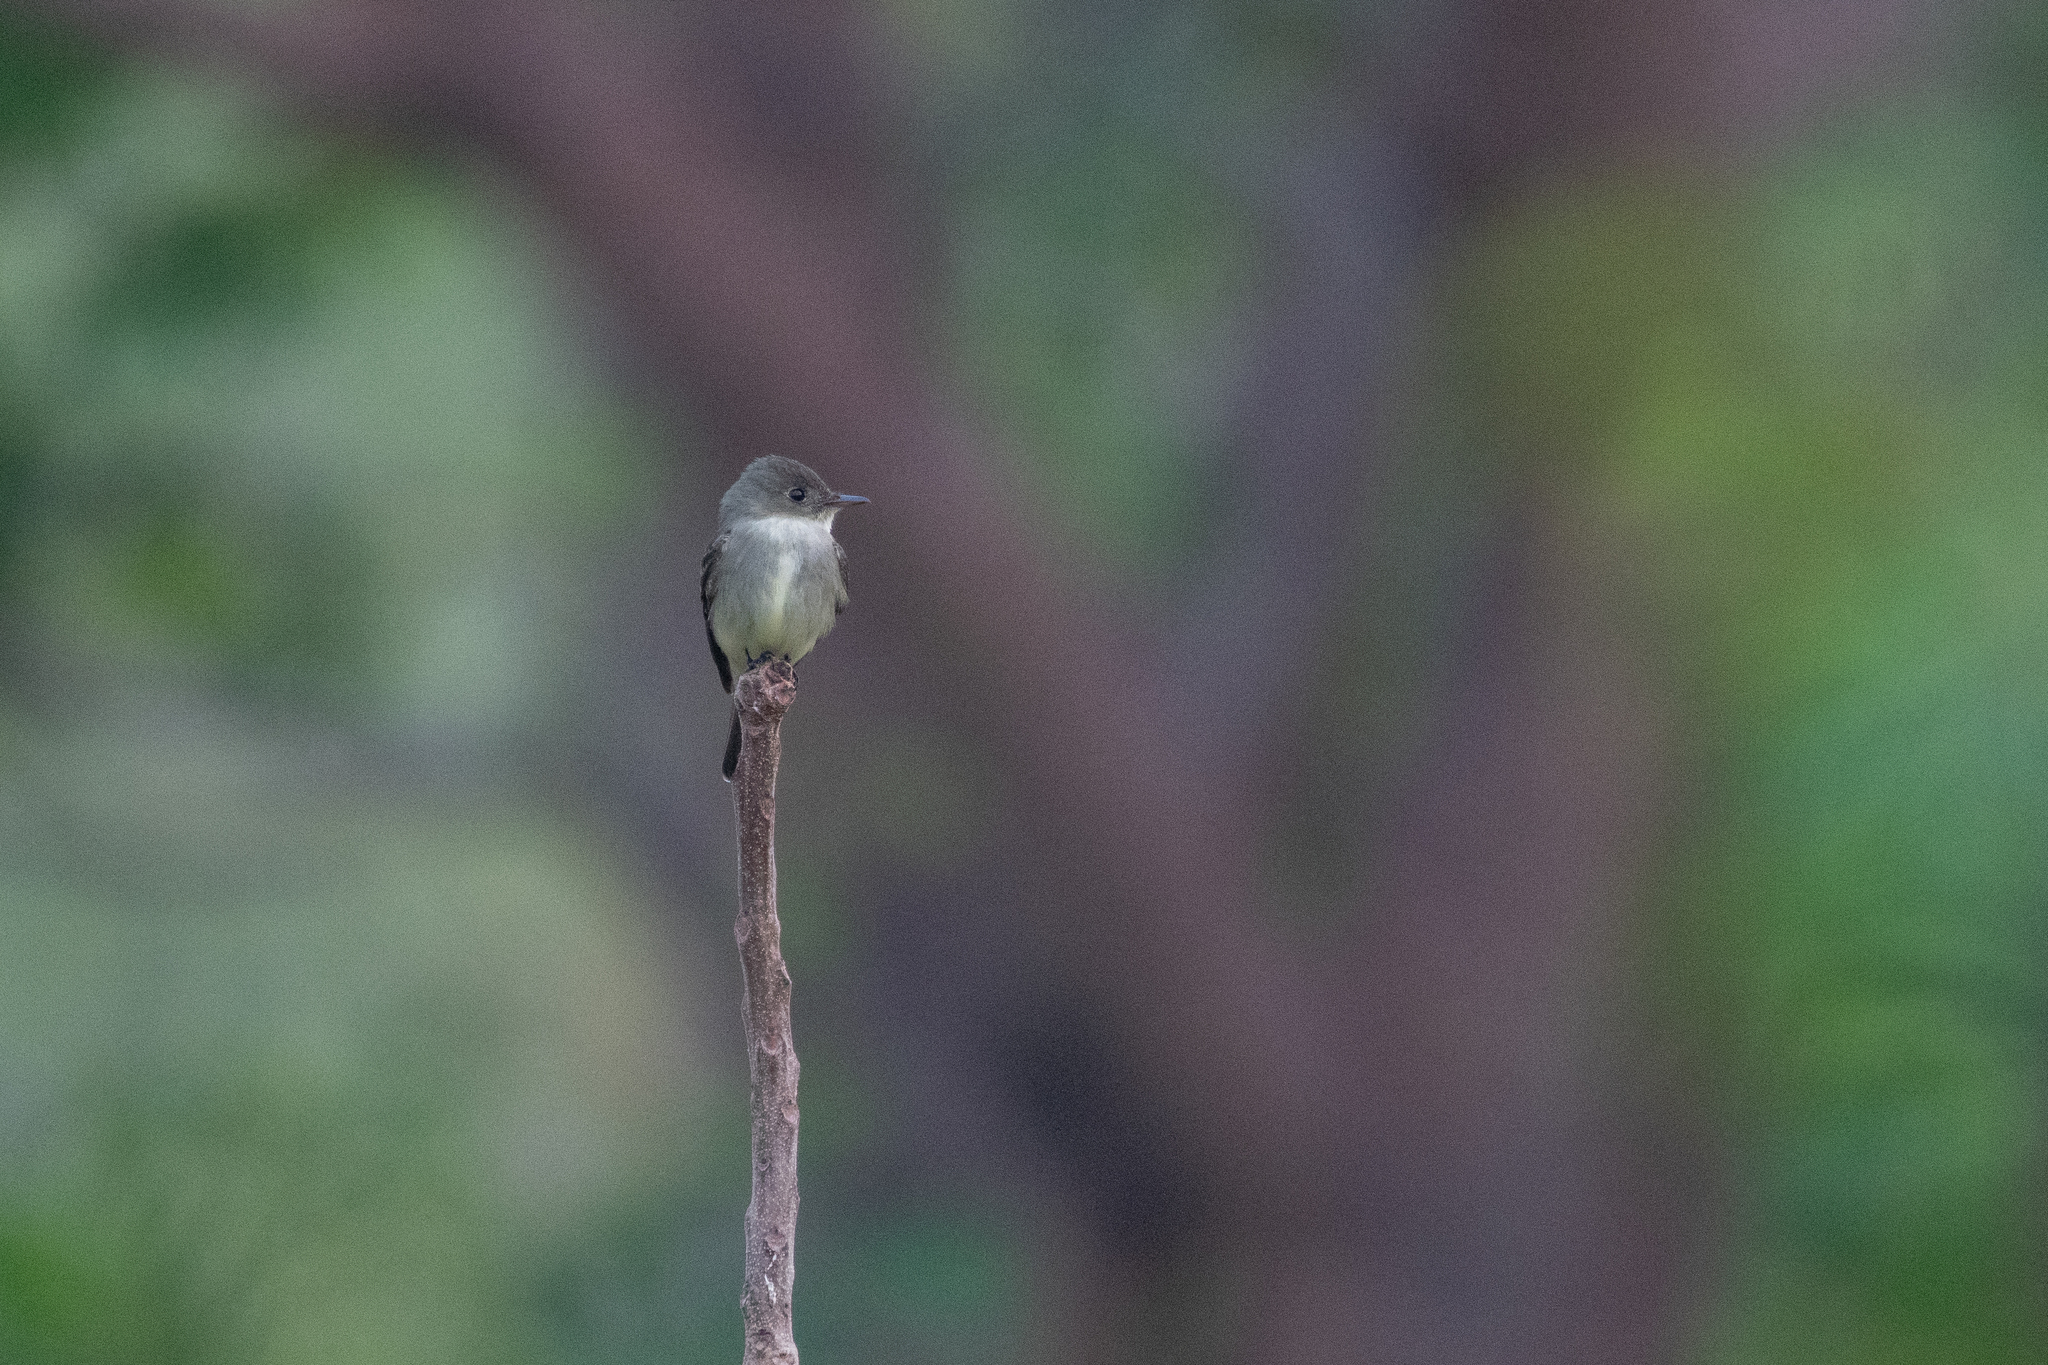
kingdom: Animalia
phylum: Chordata
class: Aves
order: Passeriformes
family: Tyrannidae
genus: Contopus
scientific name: Contopus virens
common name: Eastern wood-pewee
